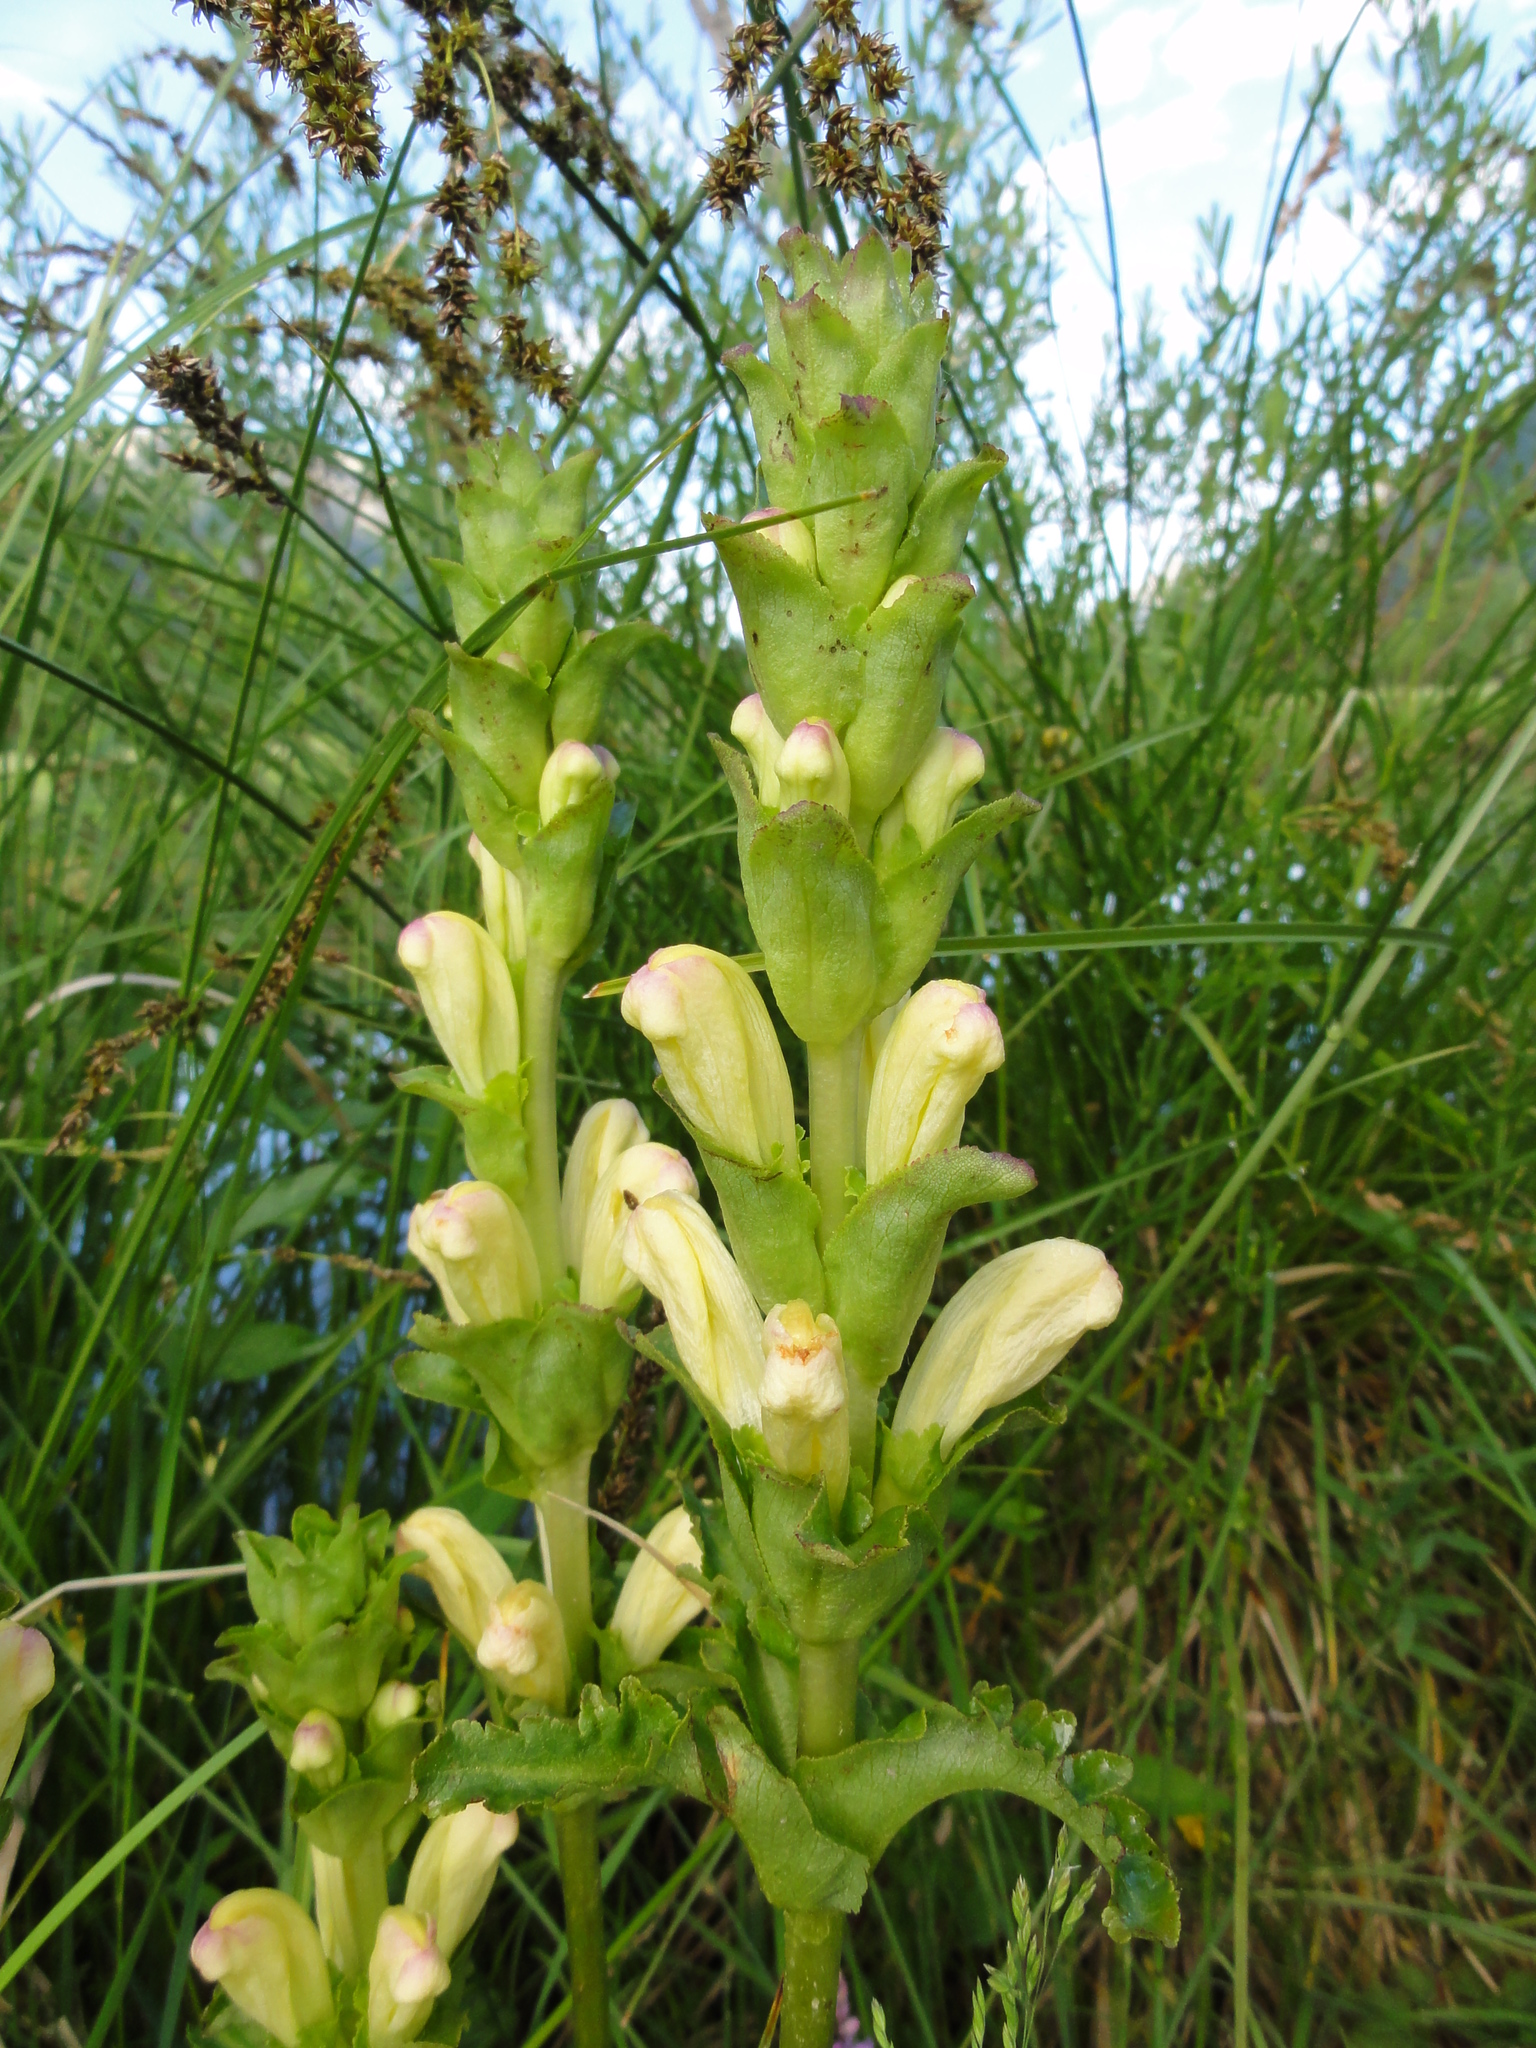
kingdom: Plantae
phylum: Tracheophyta
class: Magnoliopsida
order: Lamiales
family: Orobanchaceae
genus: Pedicularis
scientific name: Pedicularis sceptrum-carolinum
